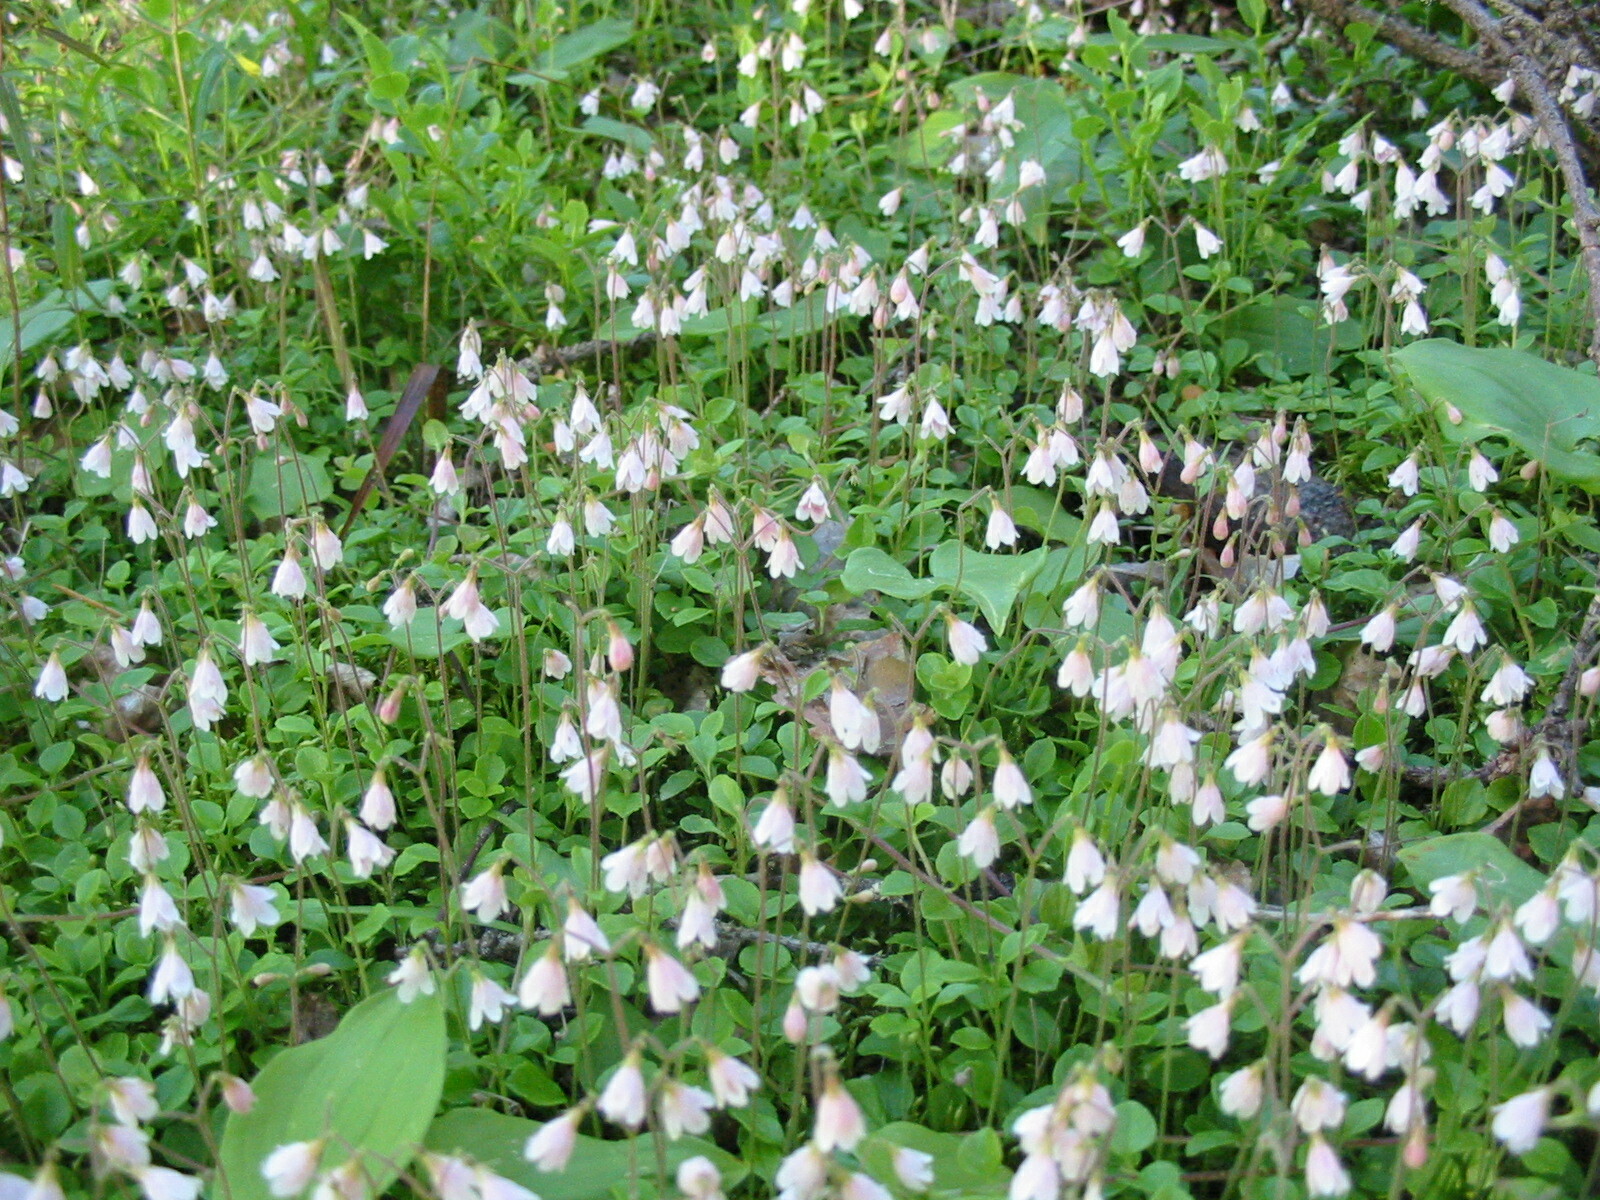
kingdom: Plantae
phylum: Tracheophyta
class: Magnoliopsida
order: Dipsacales
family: Caprifoliaceae
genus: Linnaea
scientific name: Linnaea borealis
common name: Twinflower
